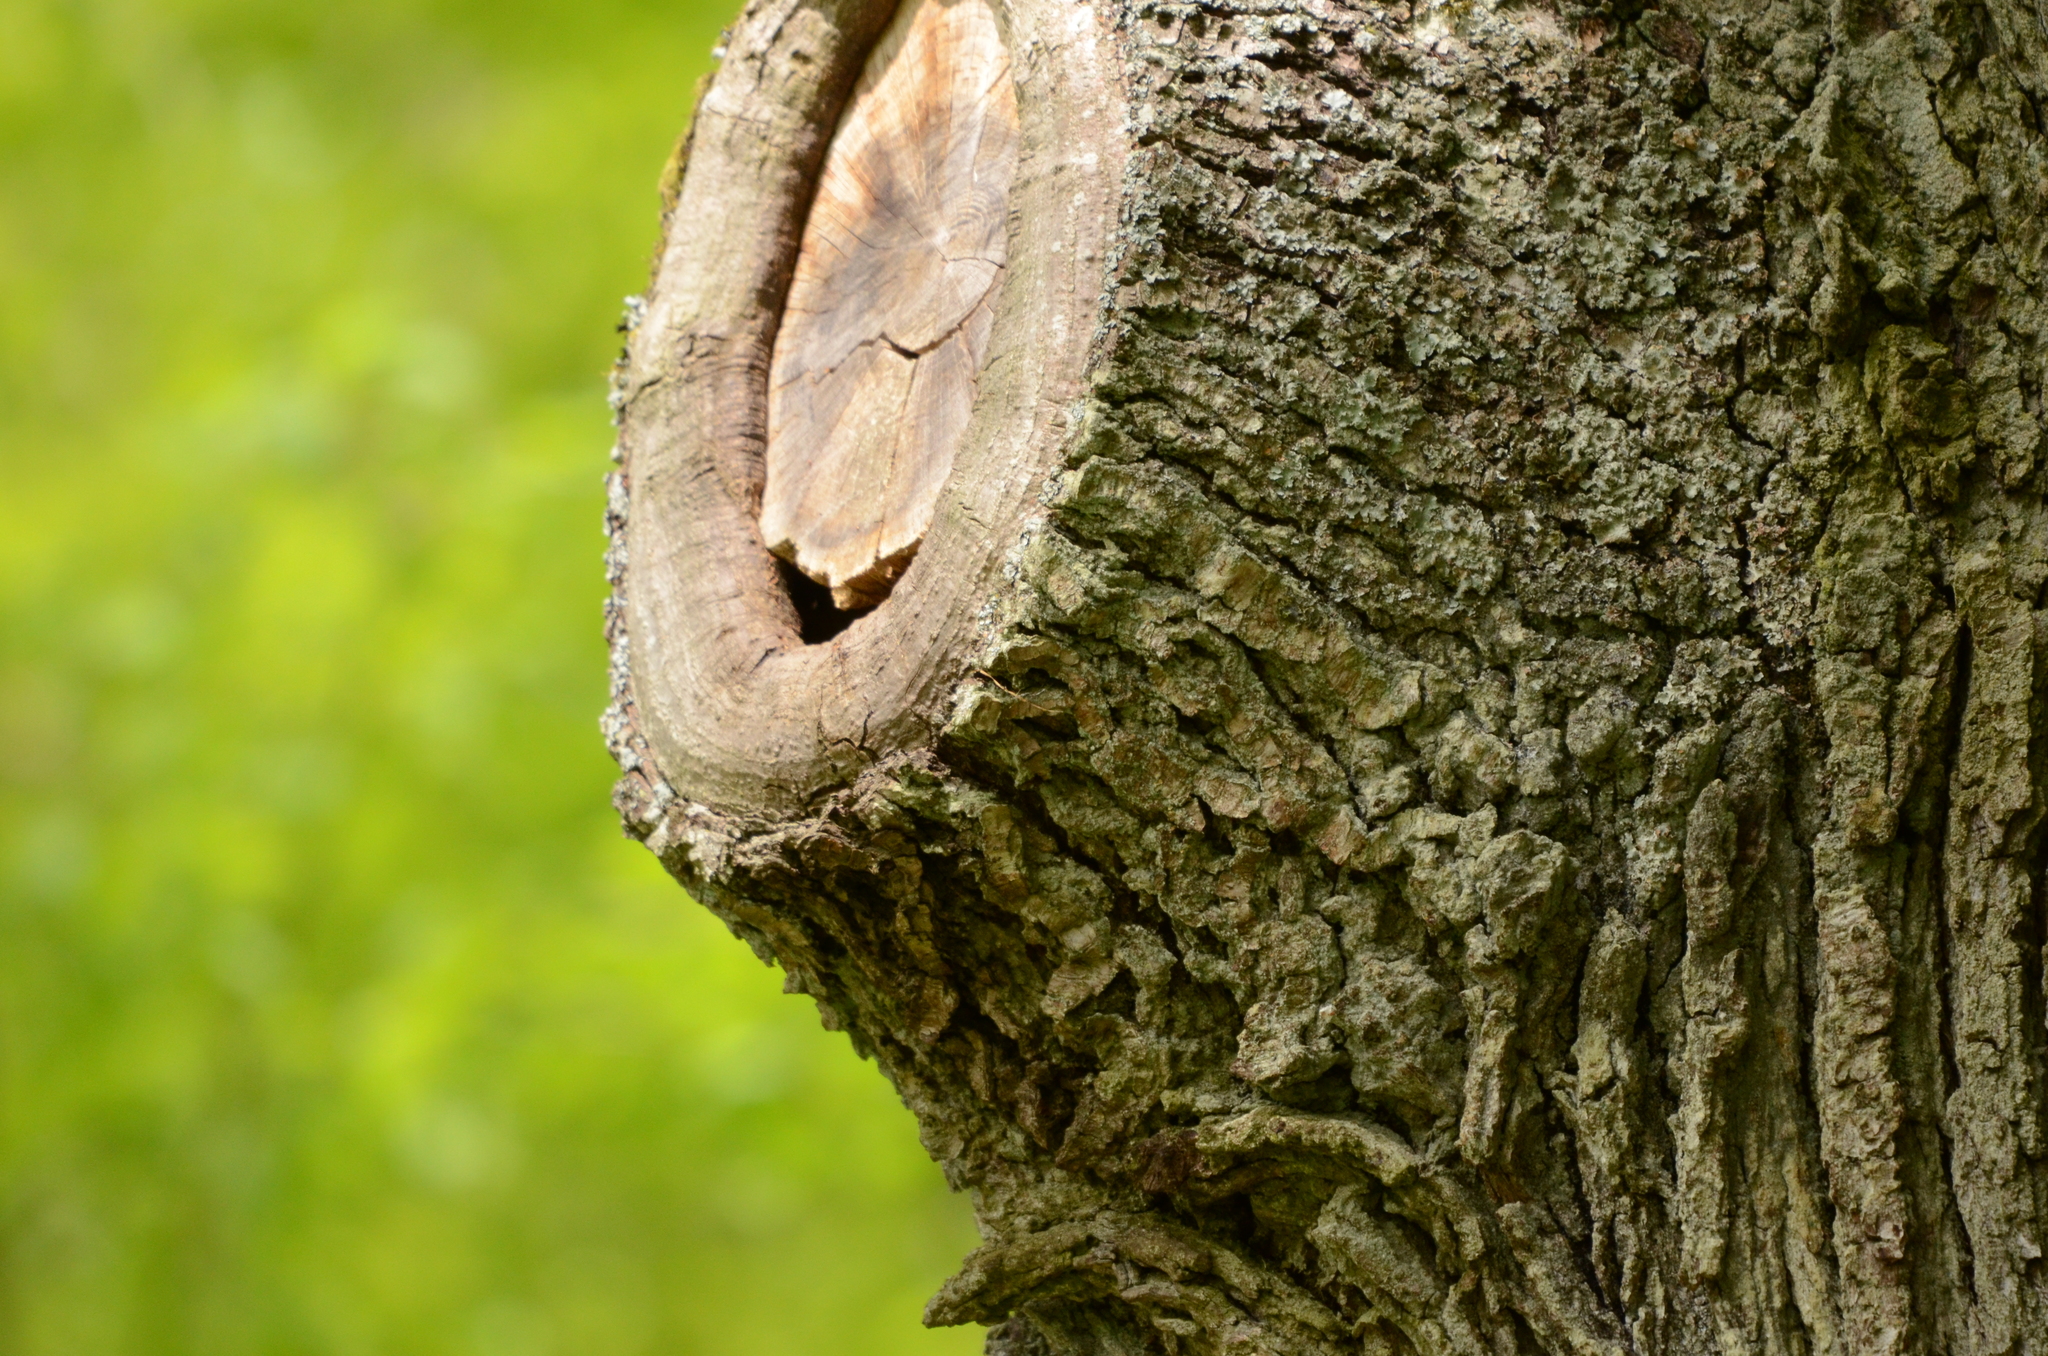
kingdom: Animalia
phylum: Chordata
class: Aves
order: Passeriformes
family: Paridae
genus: Cyanistes
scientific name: Cyanistes caeruleus
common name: Eurasian blue tit
